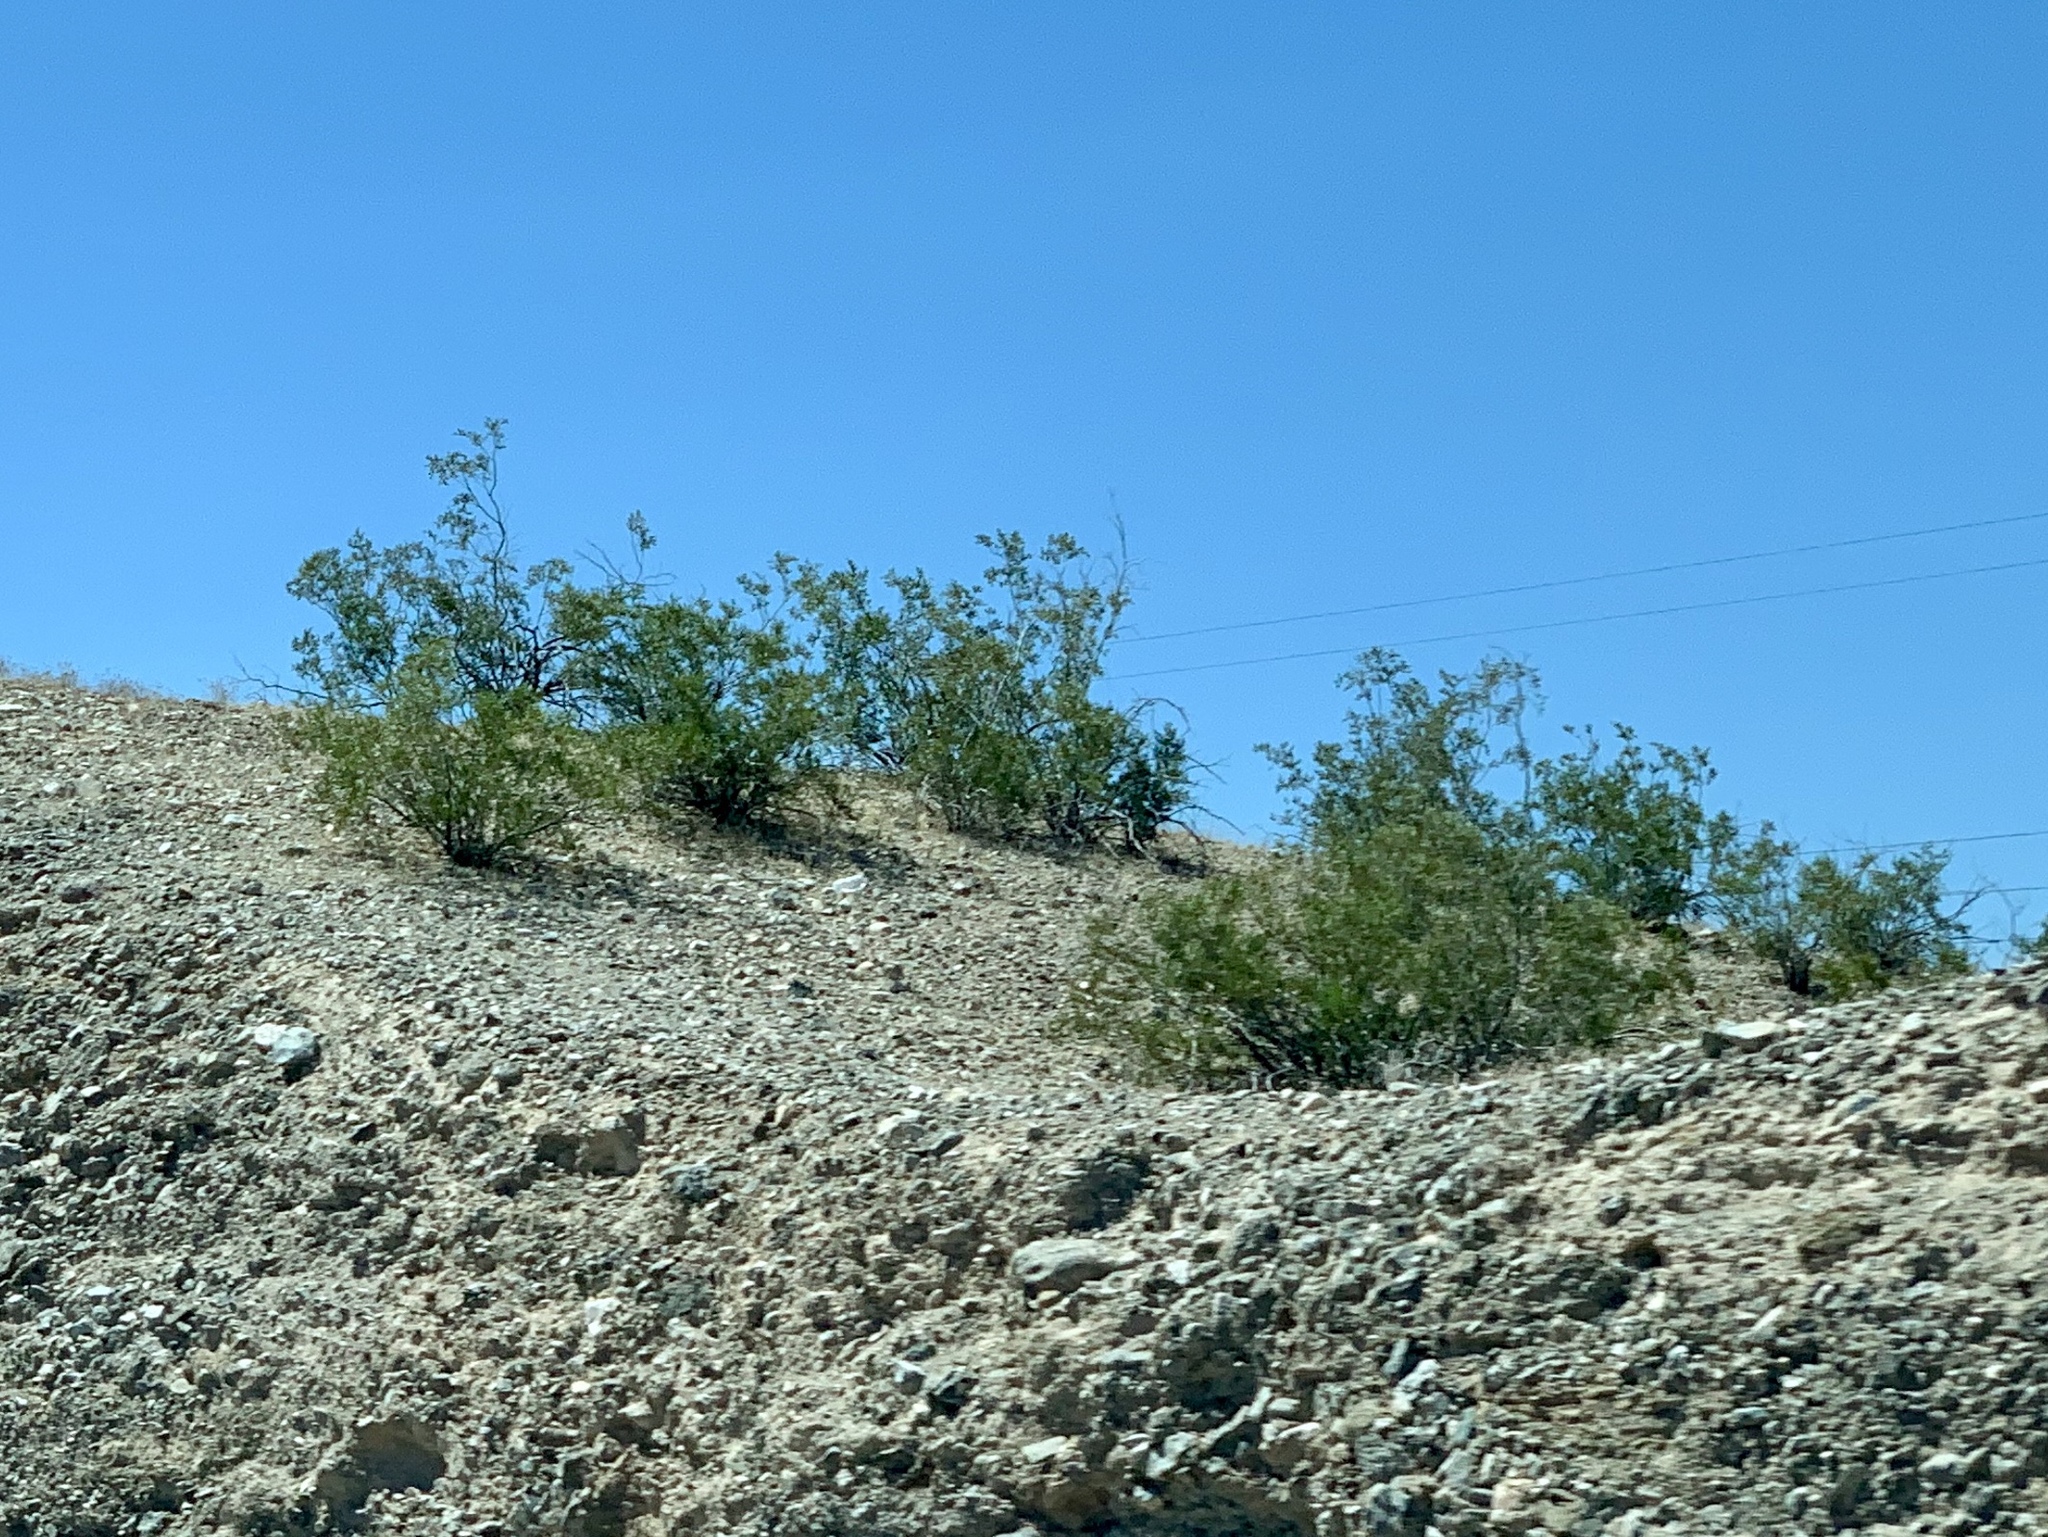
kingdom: Plantae
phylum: Tracheophyta
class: Magnoliopsida
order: Zygophyllales
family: Zygophyllaceae
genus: Larrea
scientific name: Larrea tridentata
